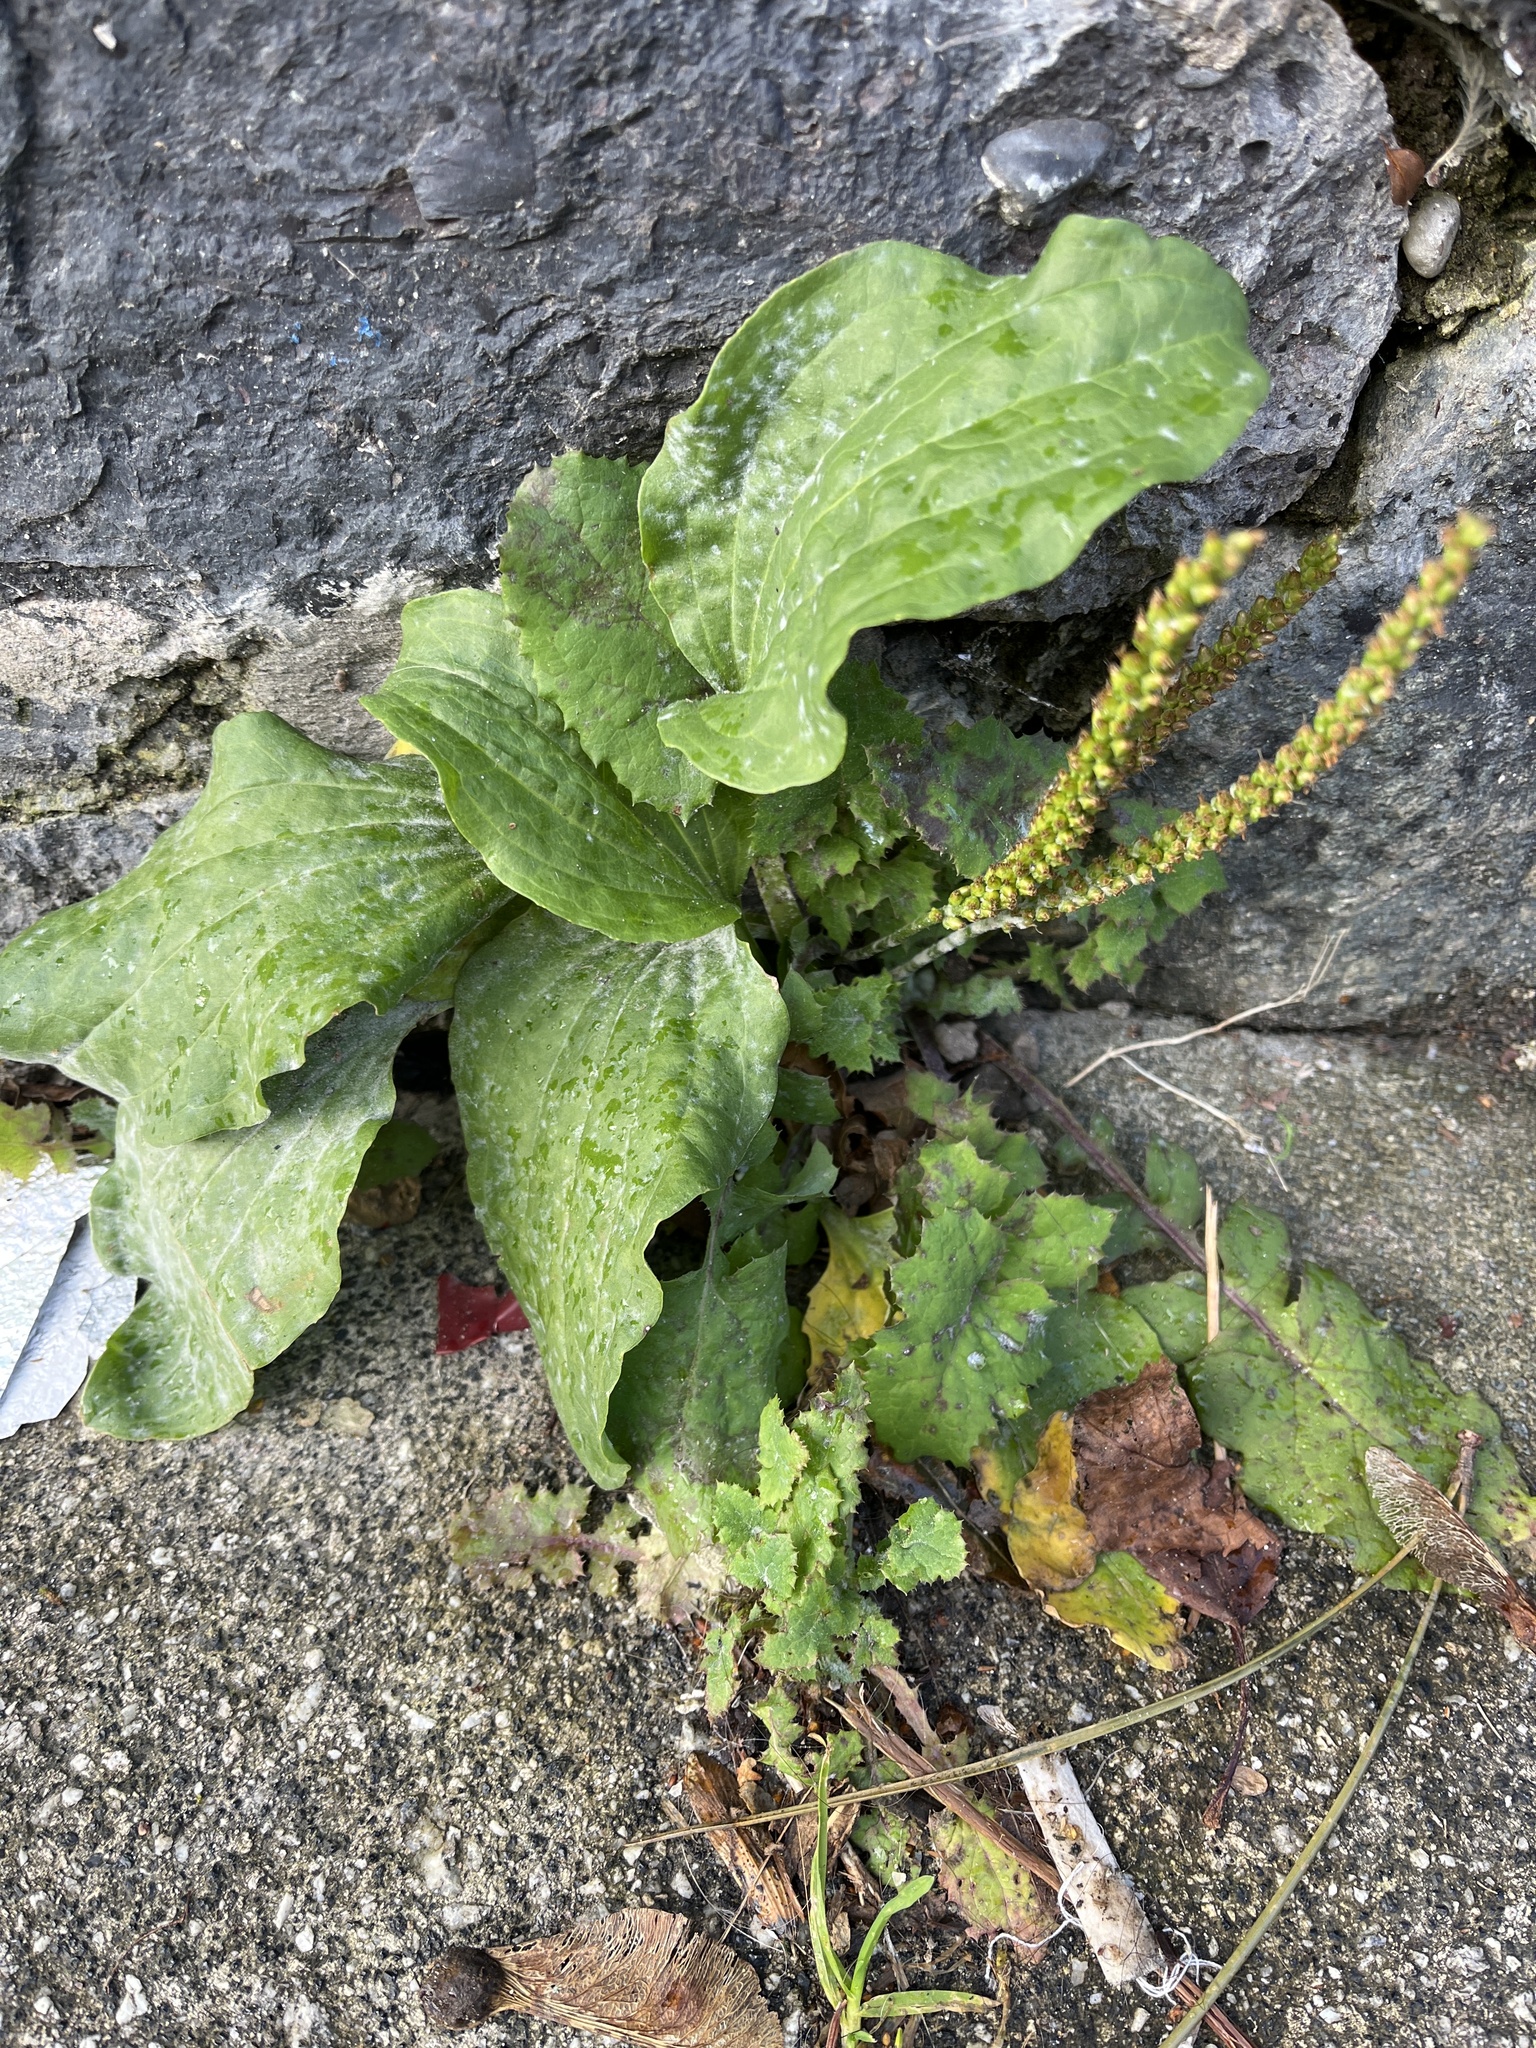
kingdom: Plantae
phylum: Tracheophyta
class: Magnoliopsida
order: Lamiales
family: Plantaginaceae
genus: Plantago
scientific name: Plantago major
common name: Common plantain
